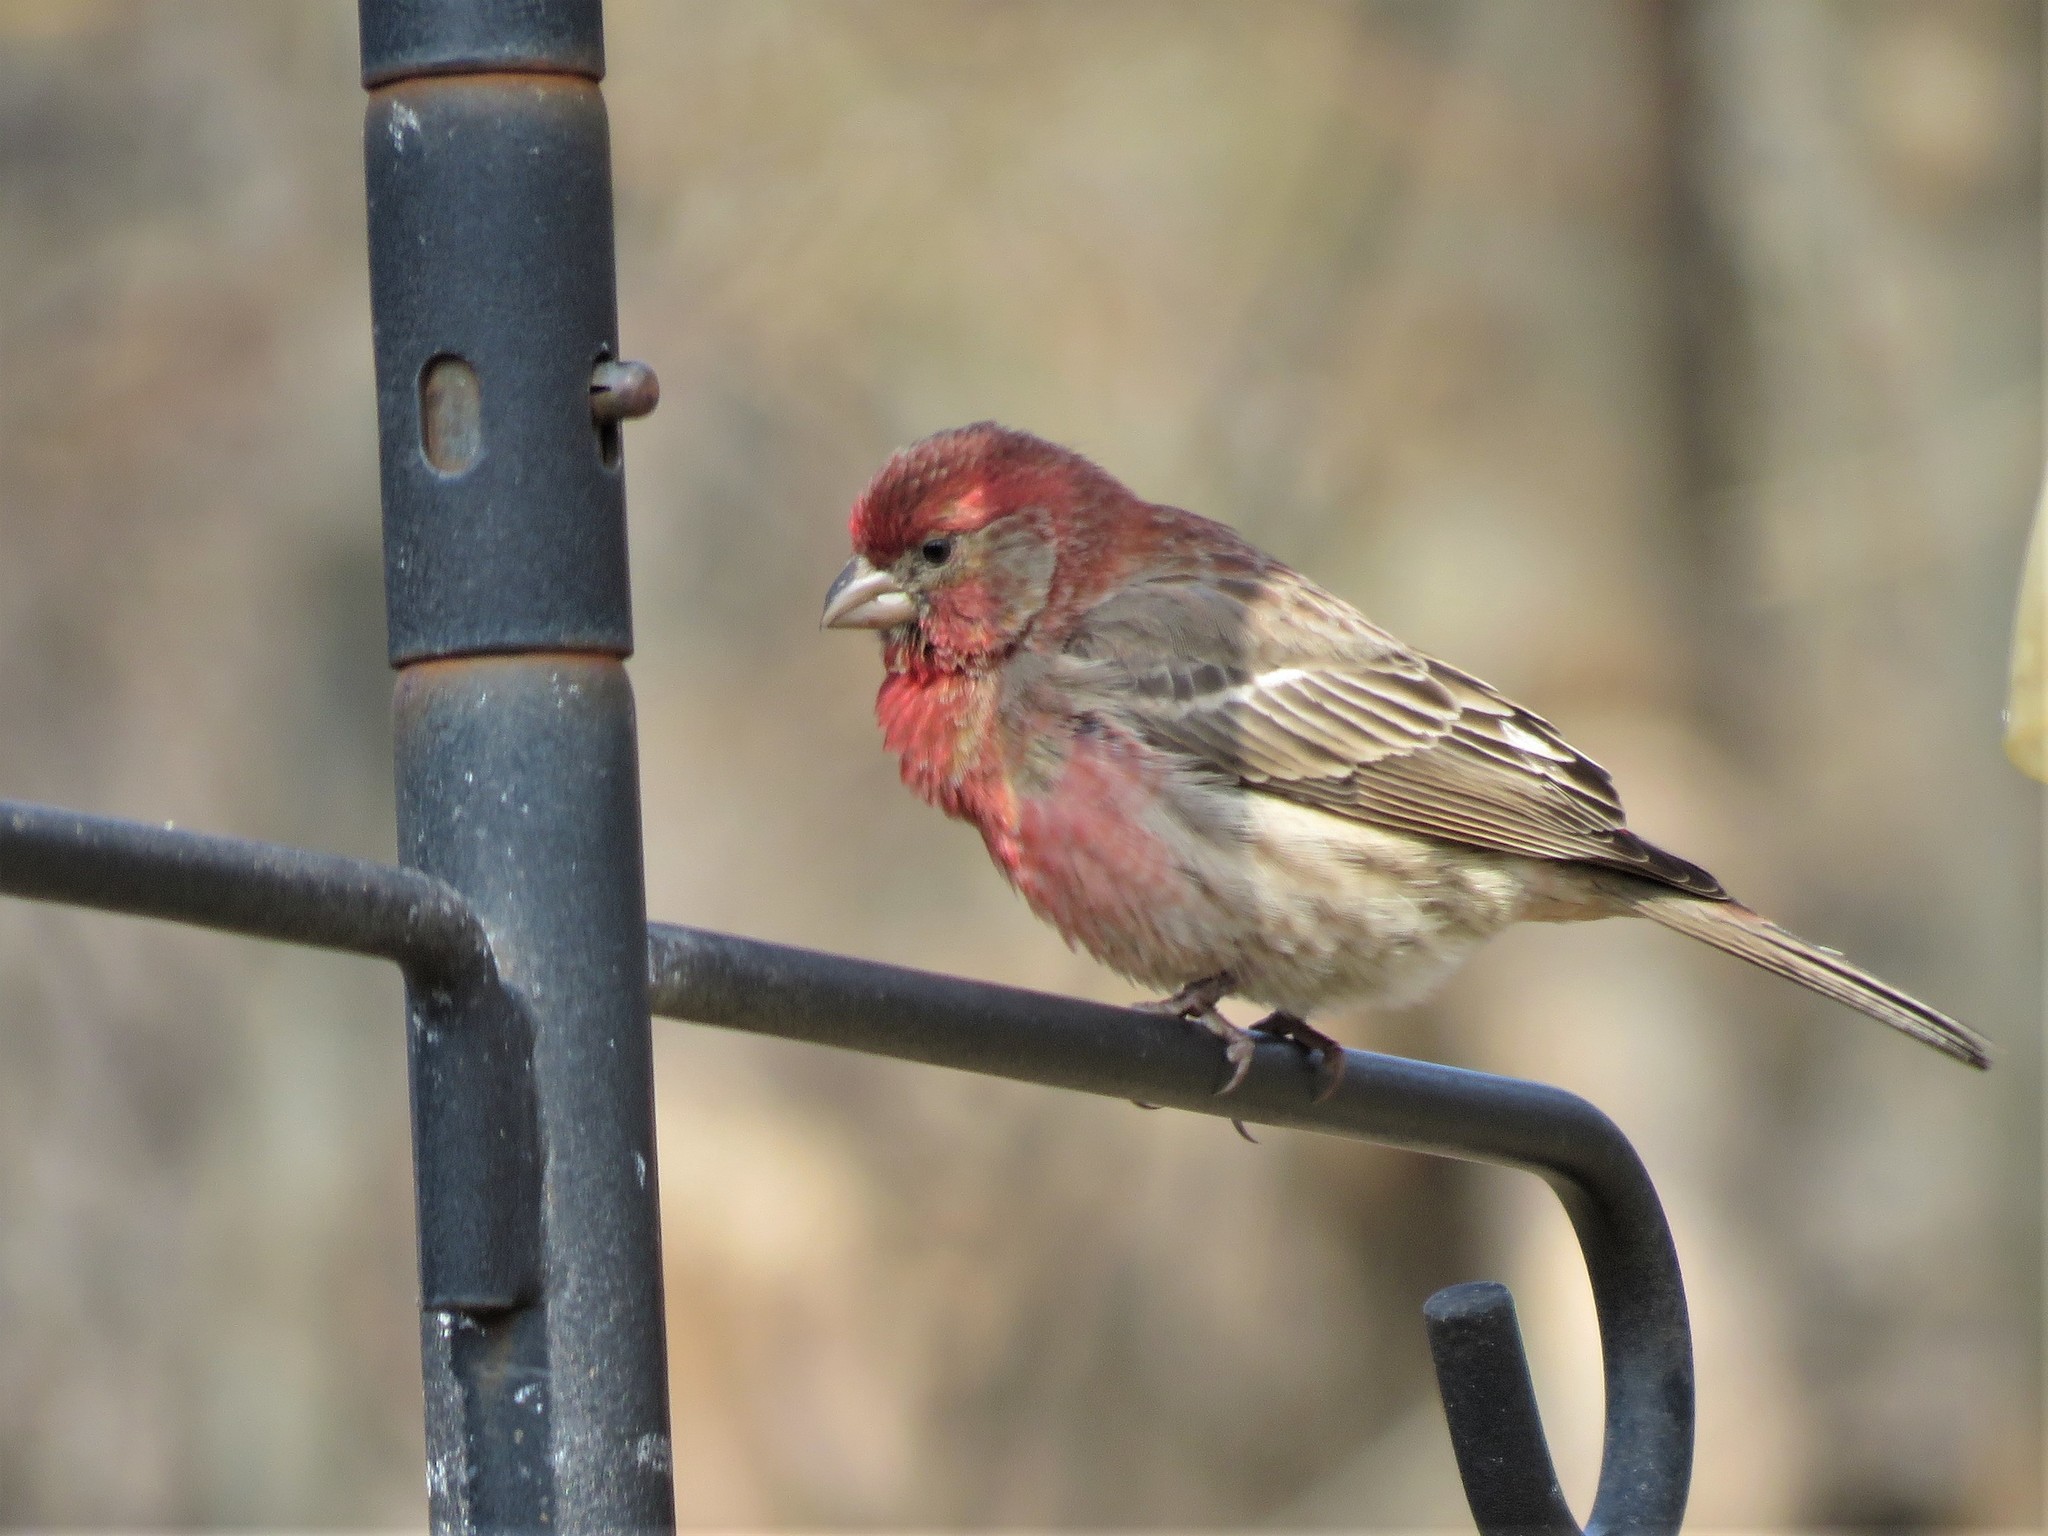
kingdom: Animalia
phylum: Chordata
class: Aves
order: Passeriformes
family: Fringillidae
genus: Haemorhous
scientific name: Haemorhous mexicanus
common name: House finch
